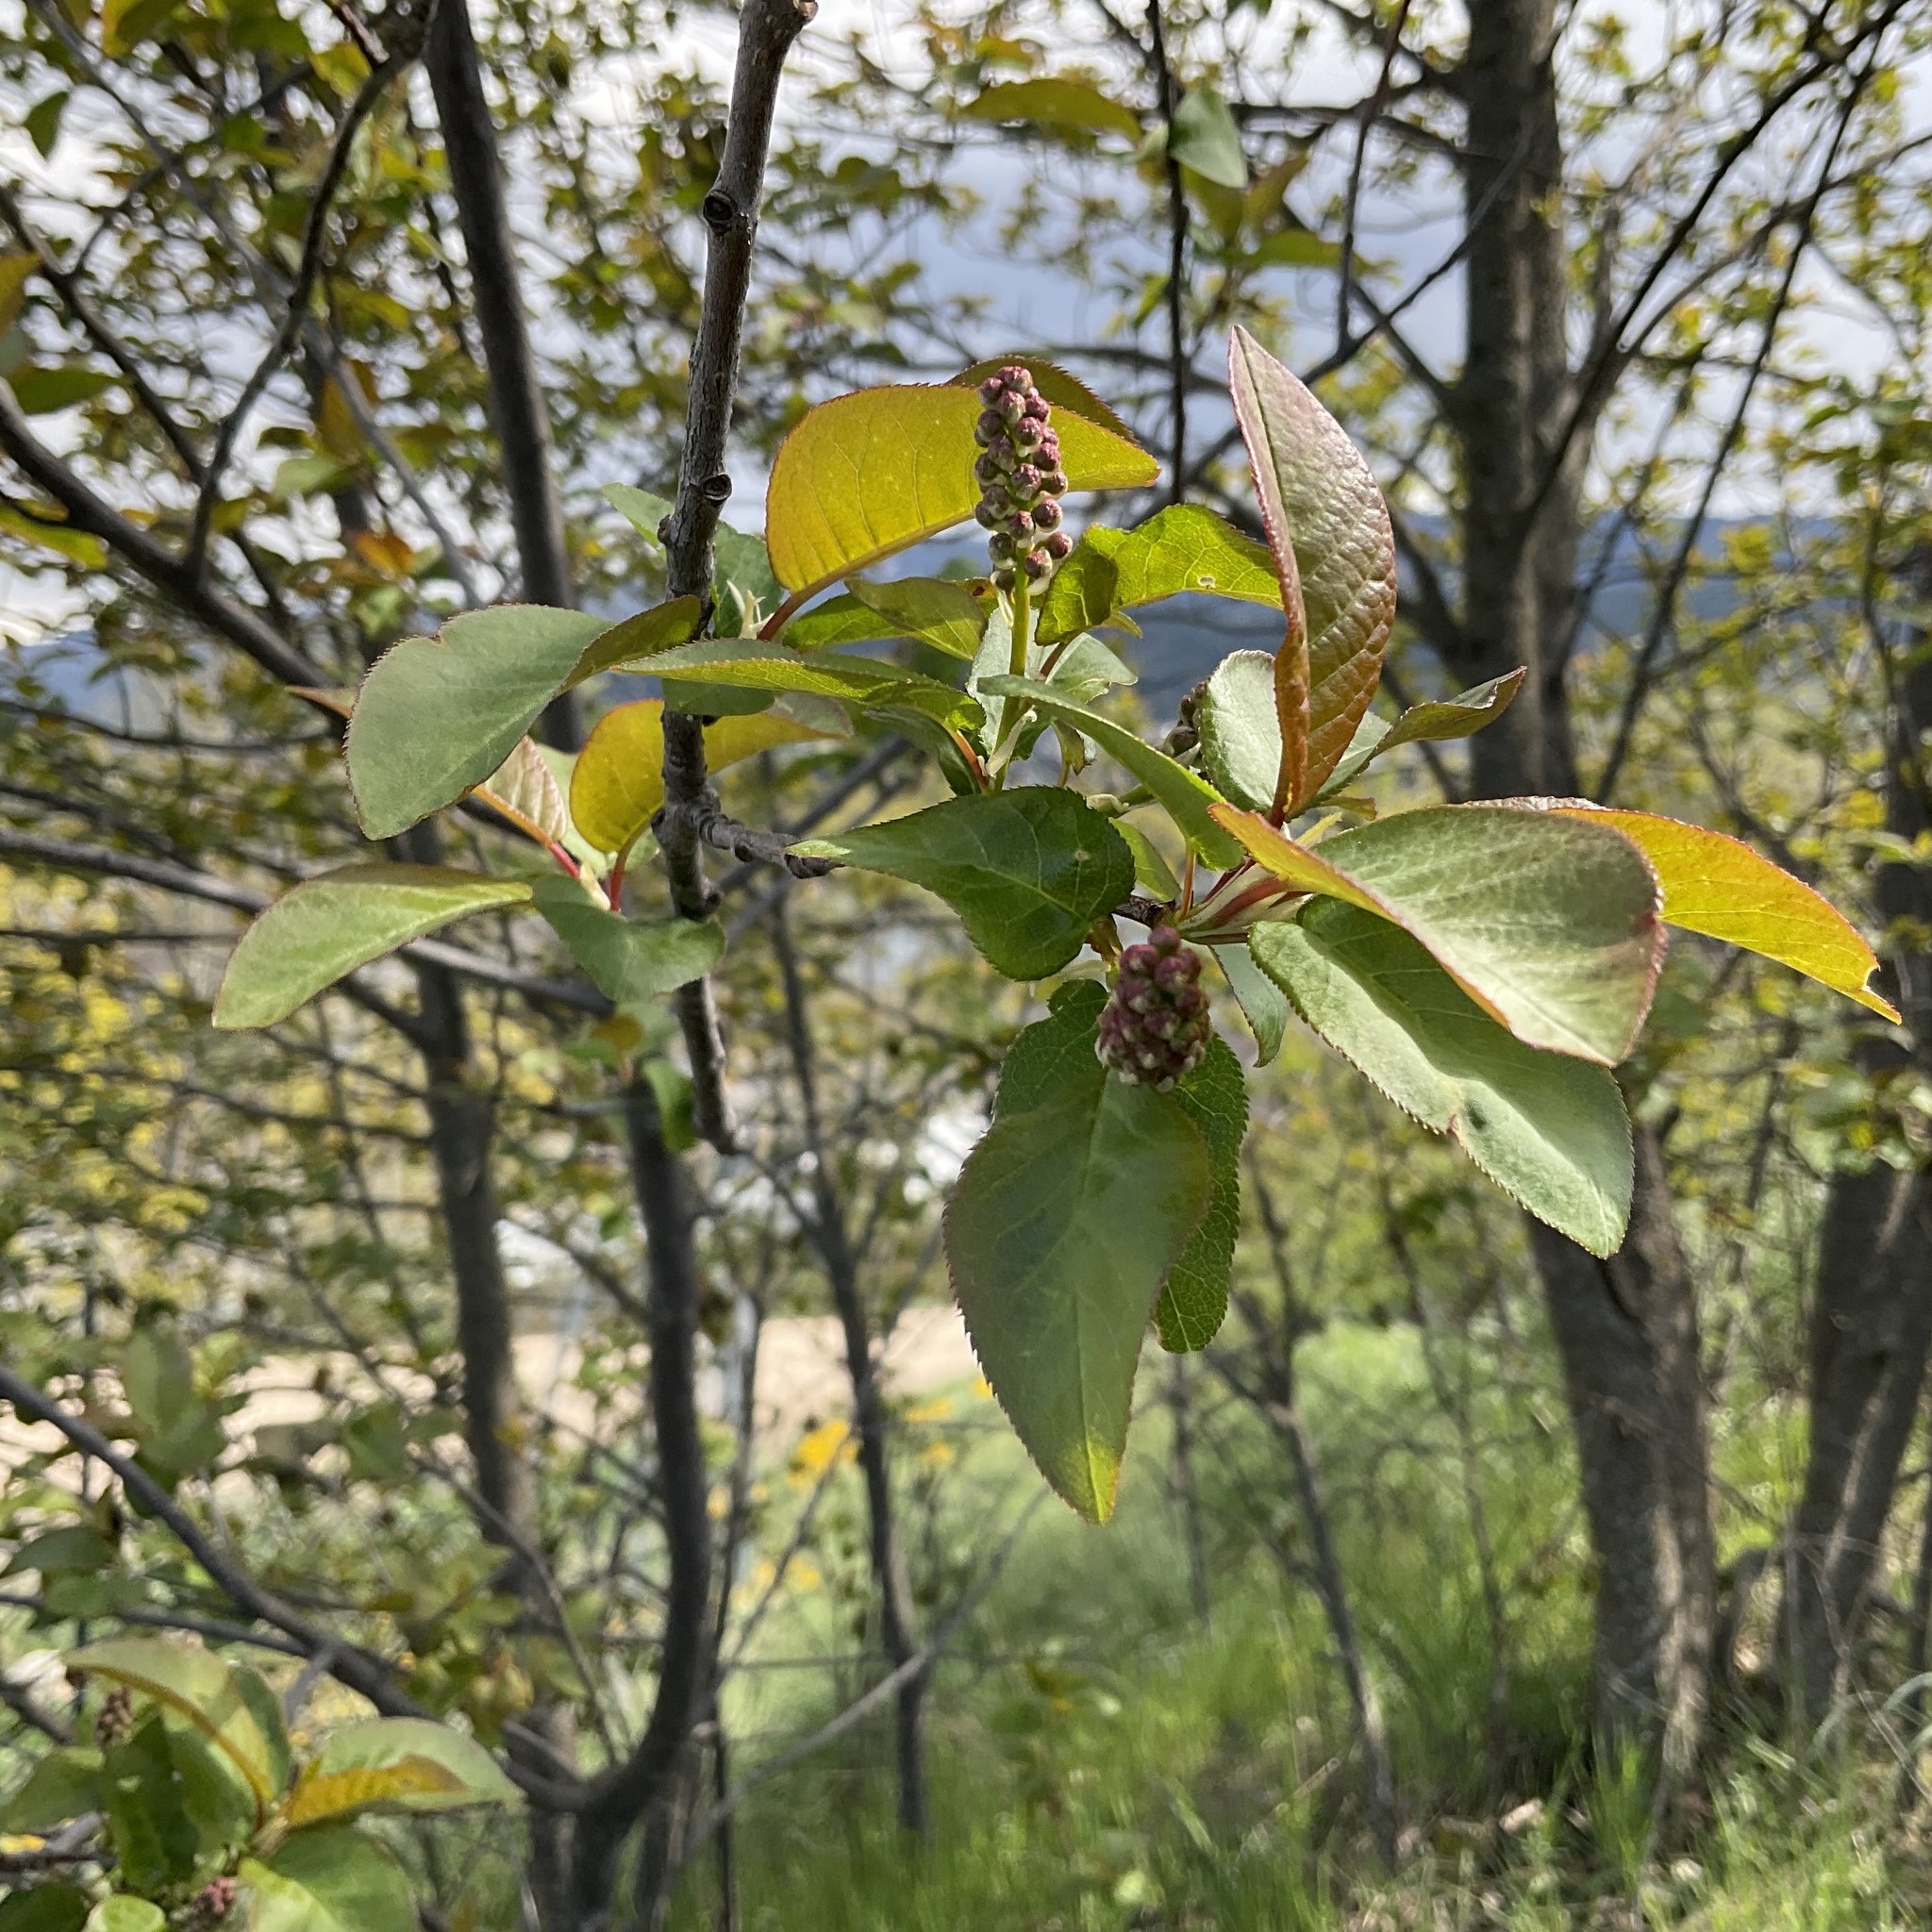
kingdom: Plantae
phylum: Tracheophyta
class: Magnoliopsida
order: Rosales
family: Rosaceae
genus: Prunus
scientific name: Prunus virginiana
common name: Chokecherry
